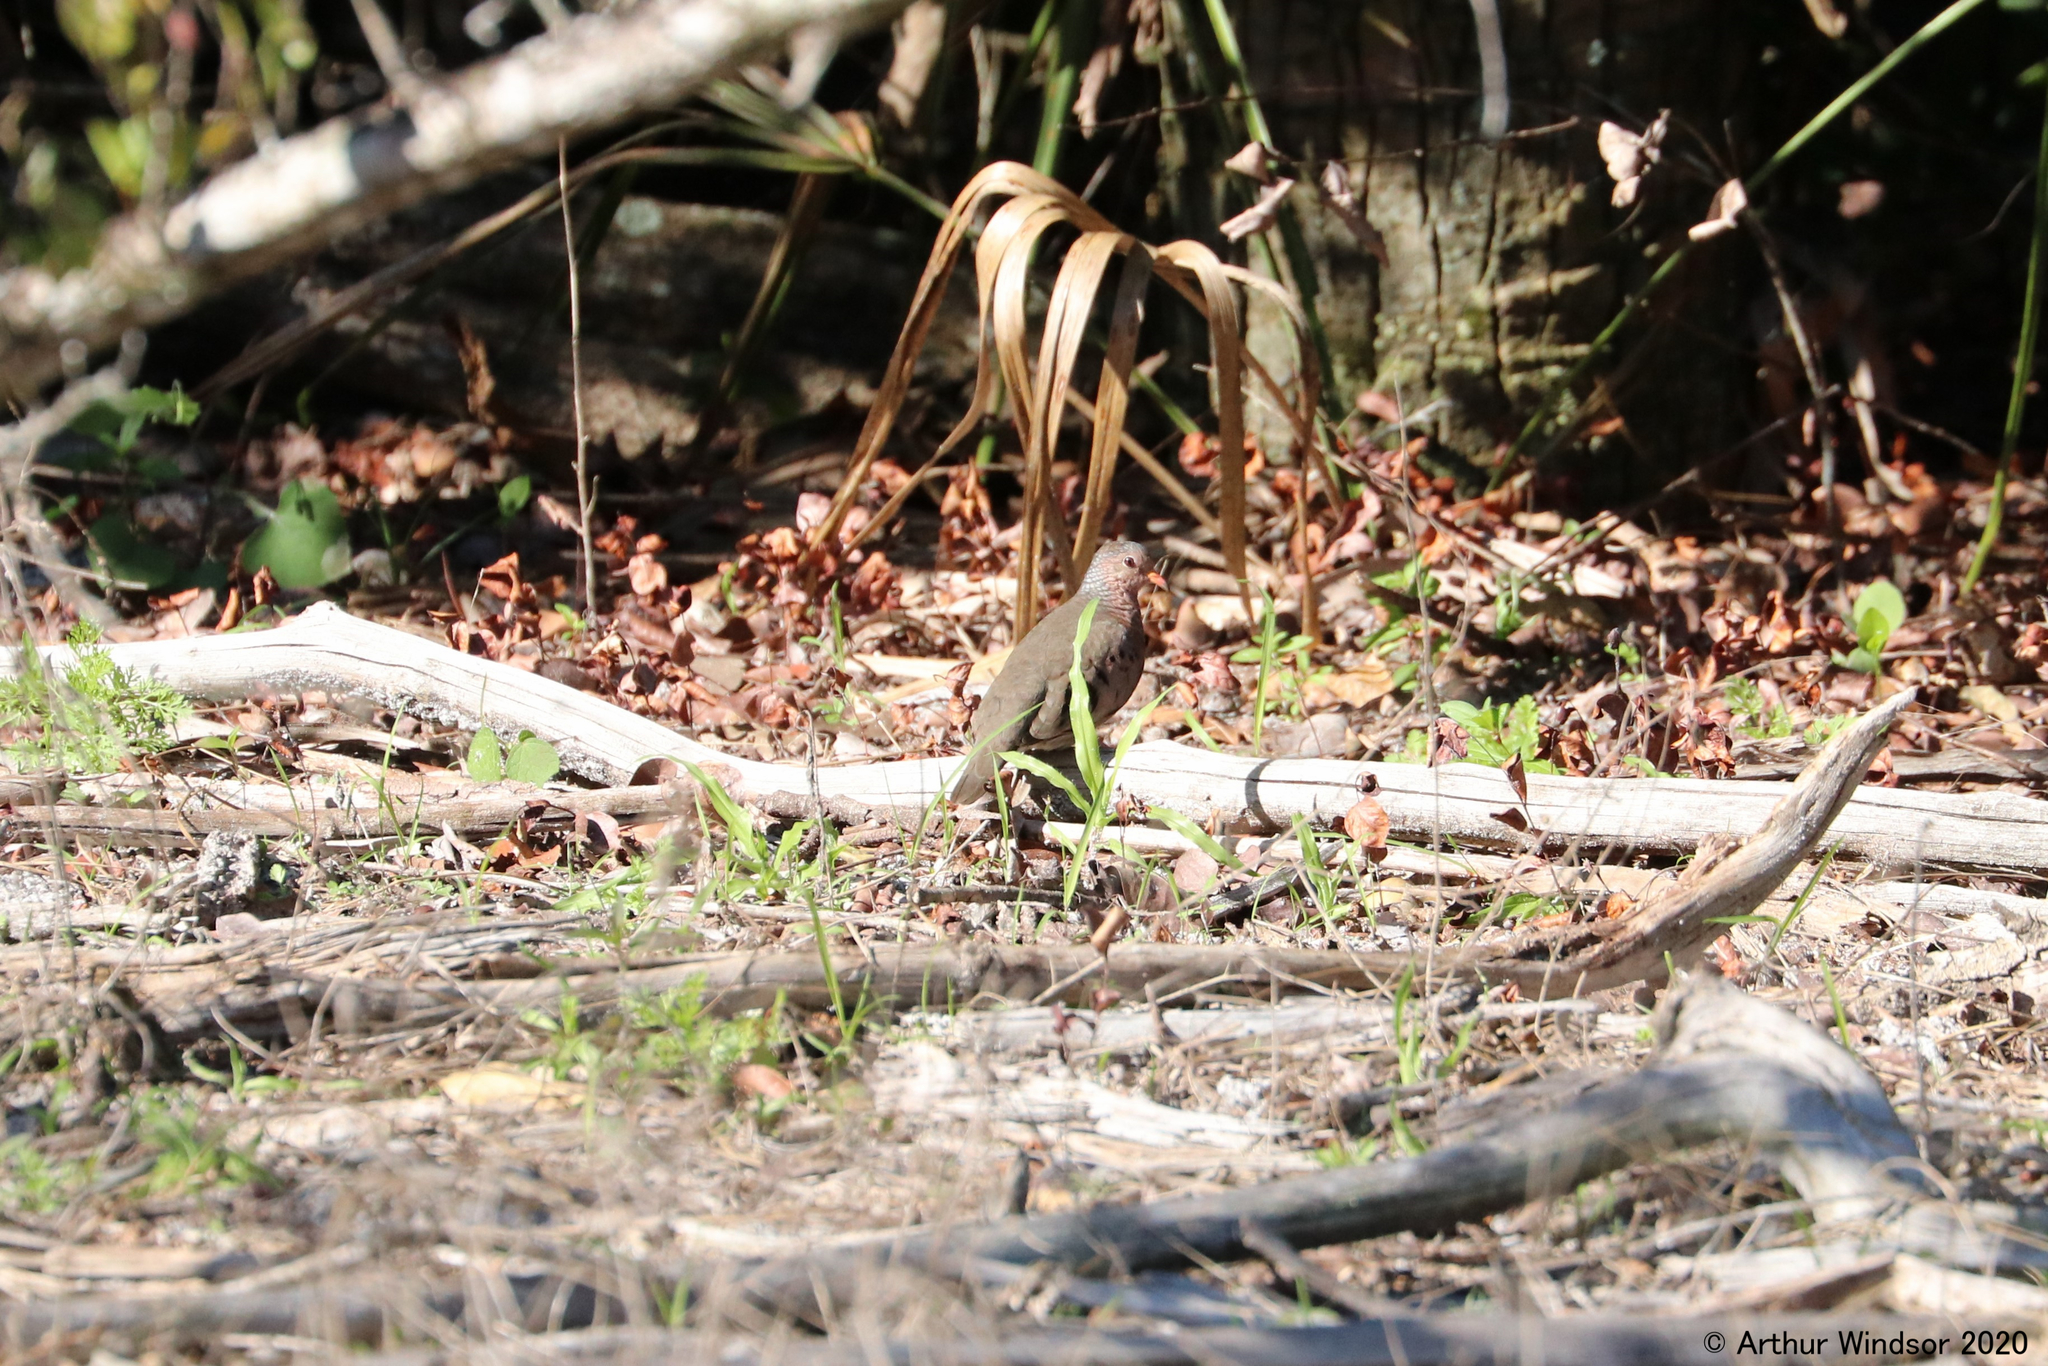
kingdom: Animalia
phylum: Chordata
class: Aves
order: Columbiformes
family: Columbidae
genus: Columbina
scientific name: Columbina passerina
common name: Common ground-dove
